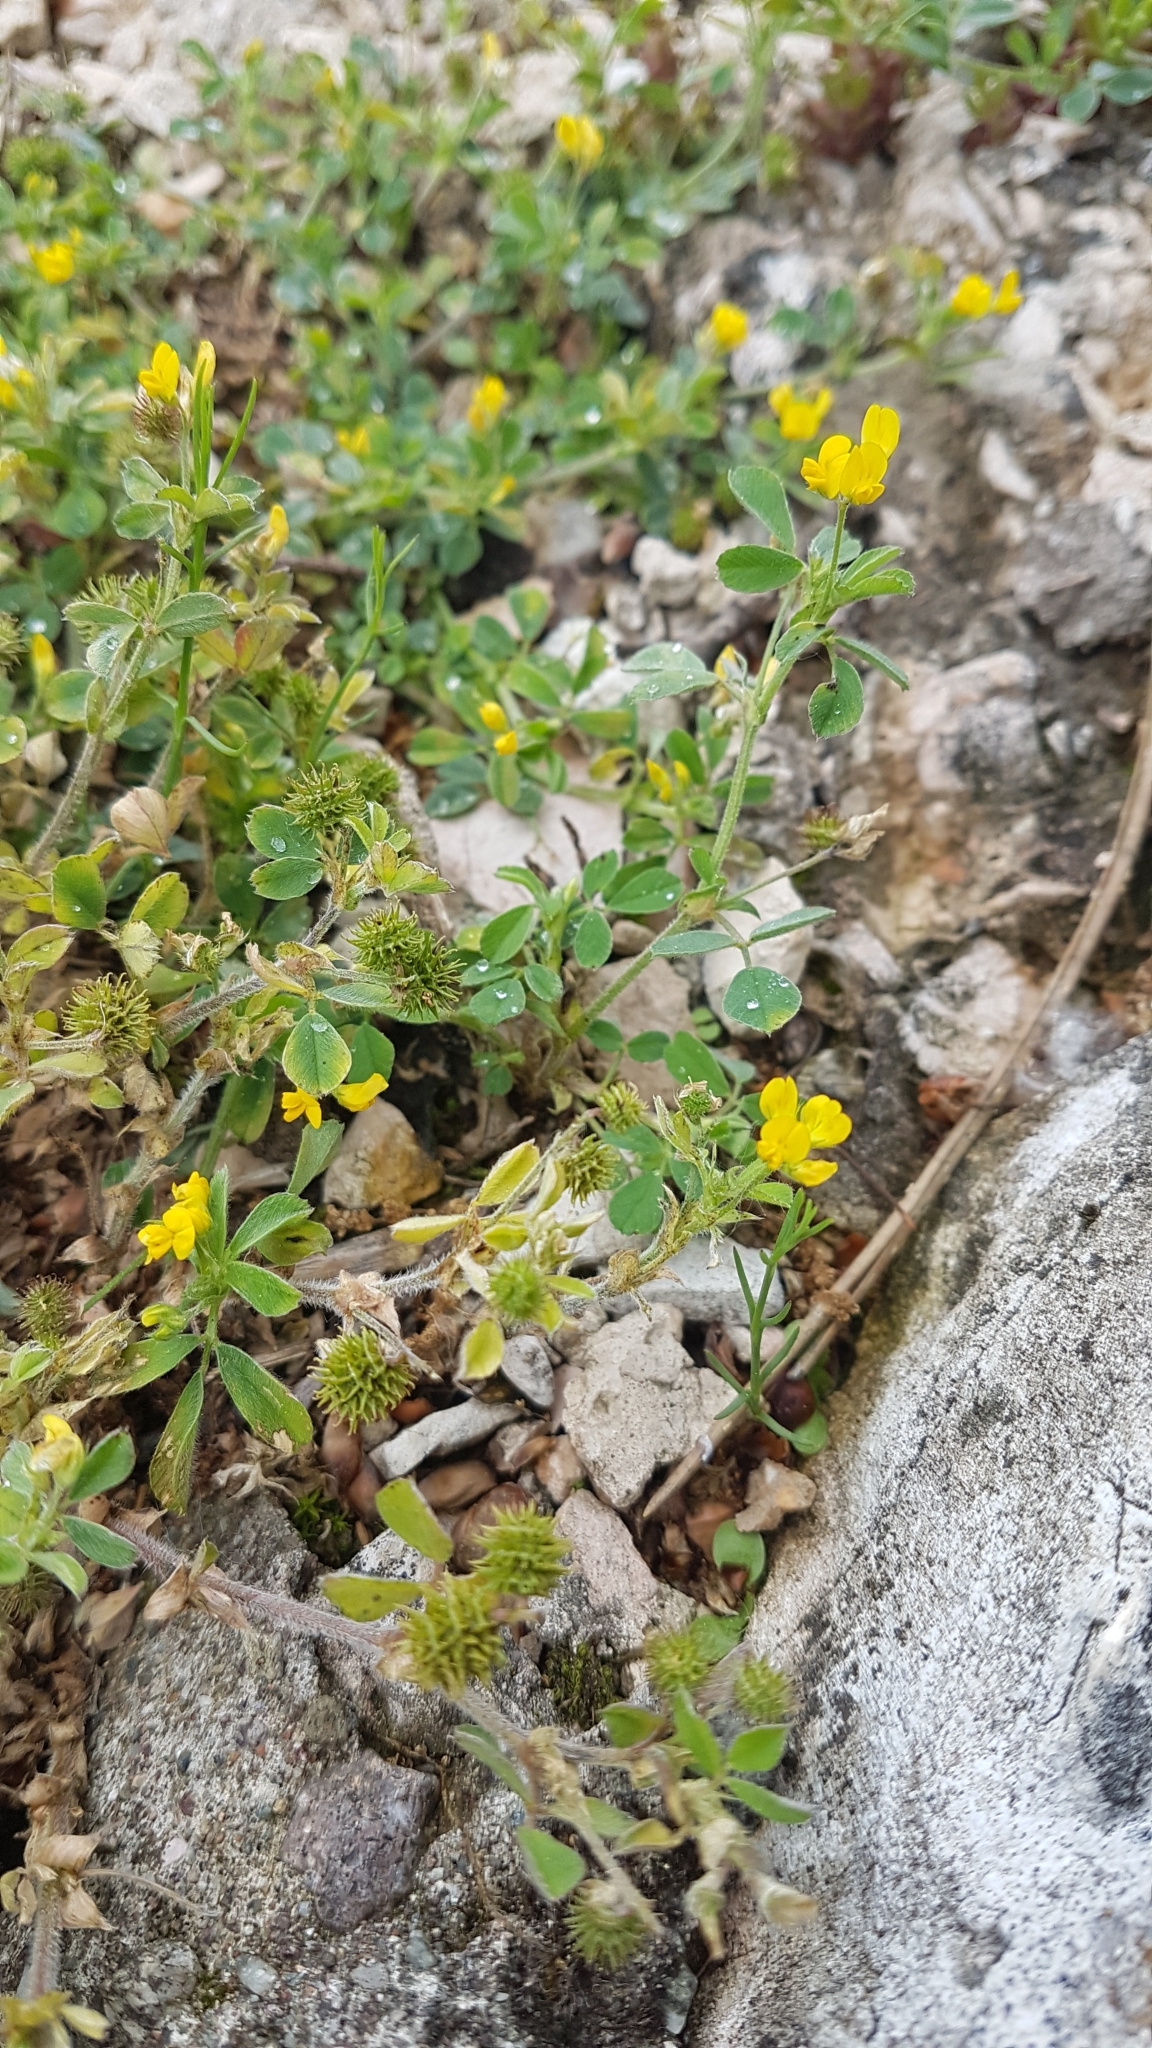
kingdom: Plantae
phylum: Tracheophyta
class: Magnoliopsida
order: Fabales
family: Fabaceae
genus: Medicago
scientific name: Medicago minima
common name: Little bur-clover
